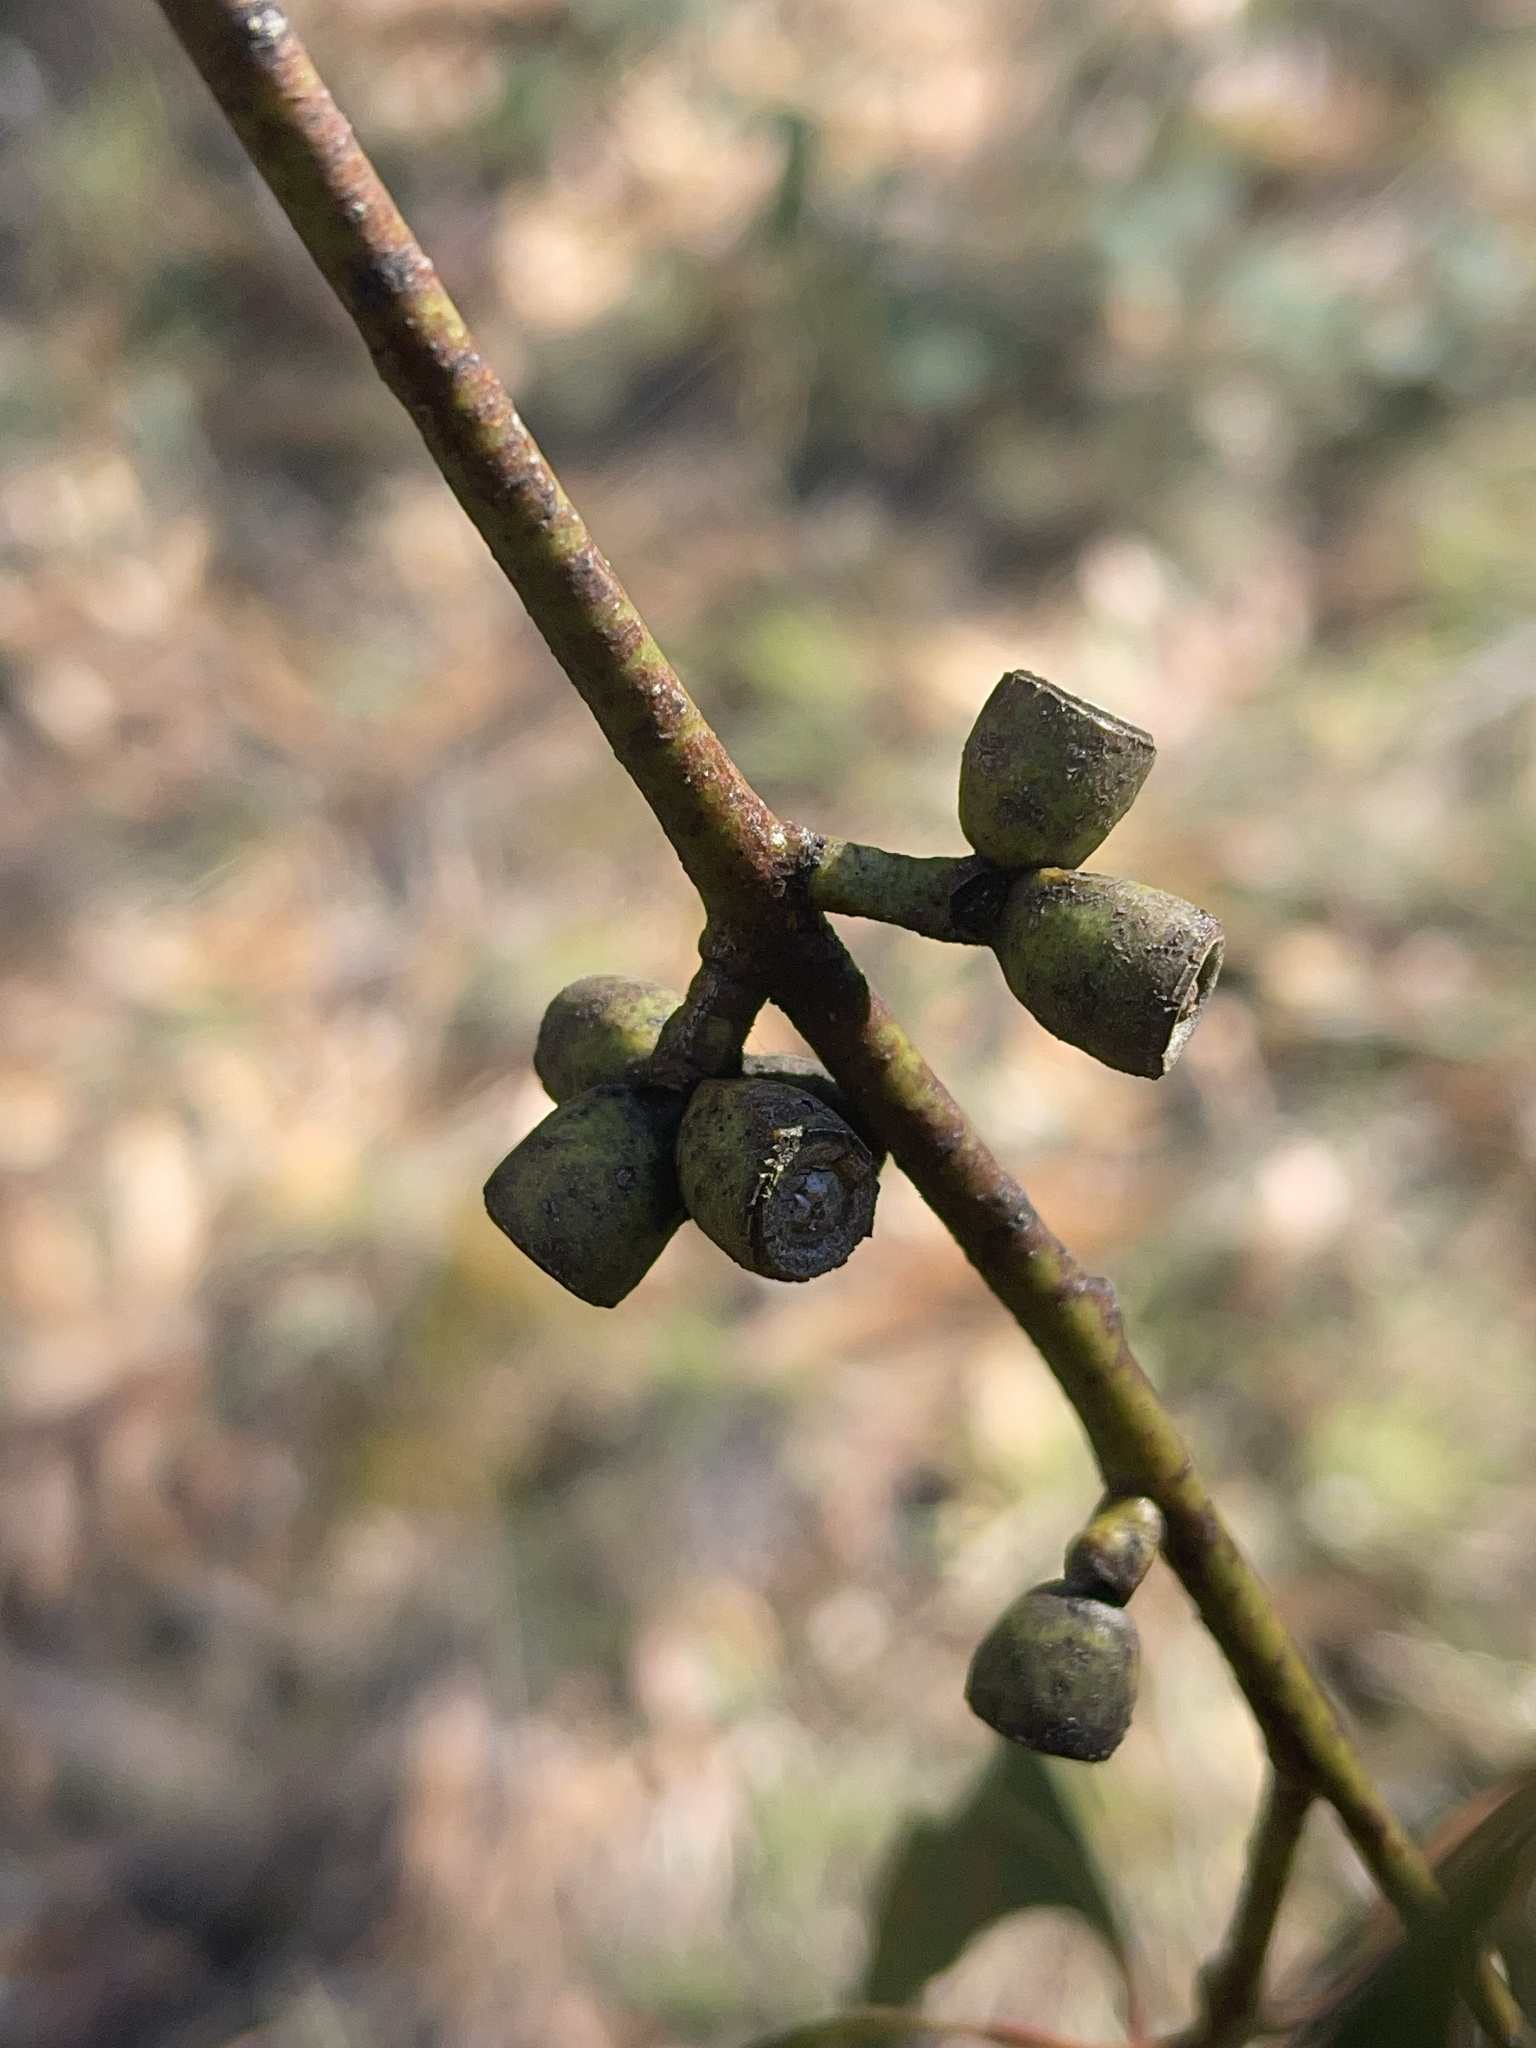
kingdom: Plantae
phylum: Tracheophyta
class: Magnoliopsida
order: Myrtales
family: Myrtaceae
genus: Eucalyptus
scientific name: Eucalyptus goniocalyx
